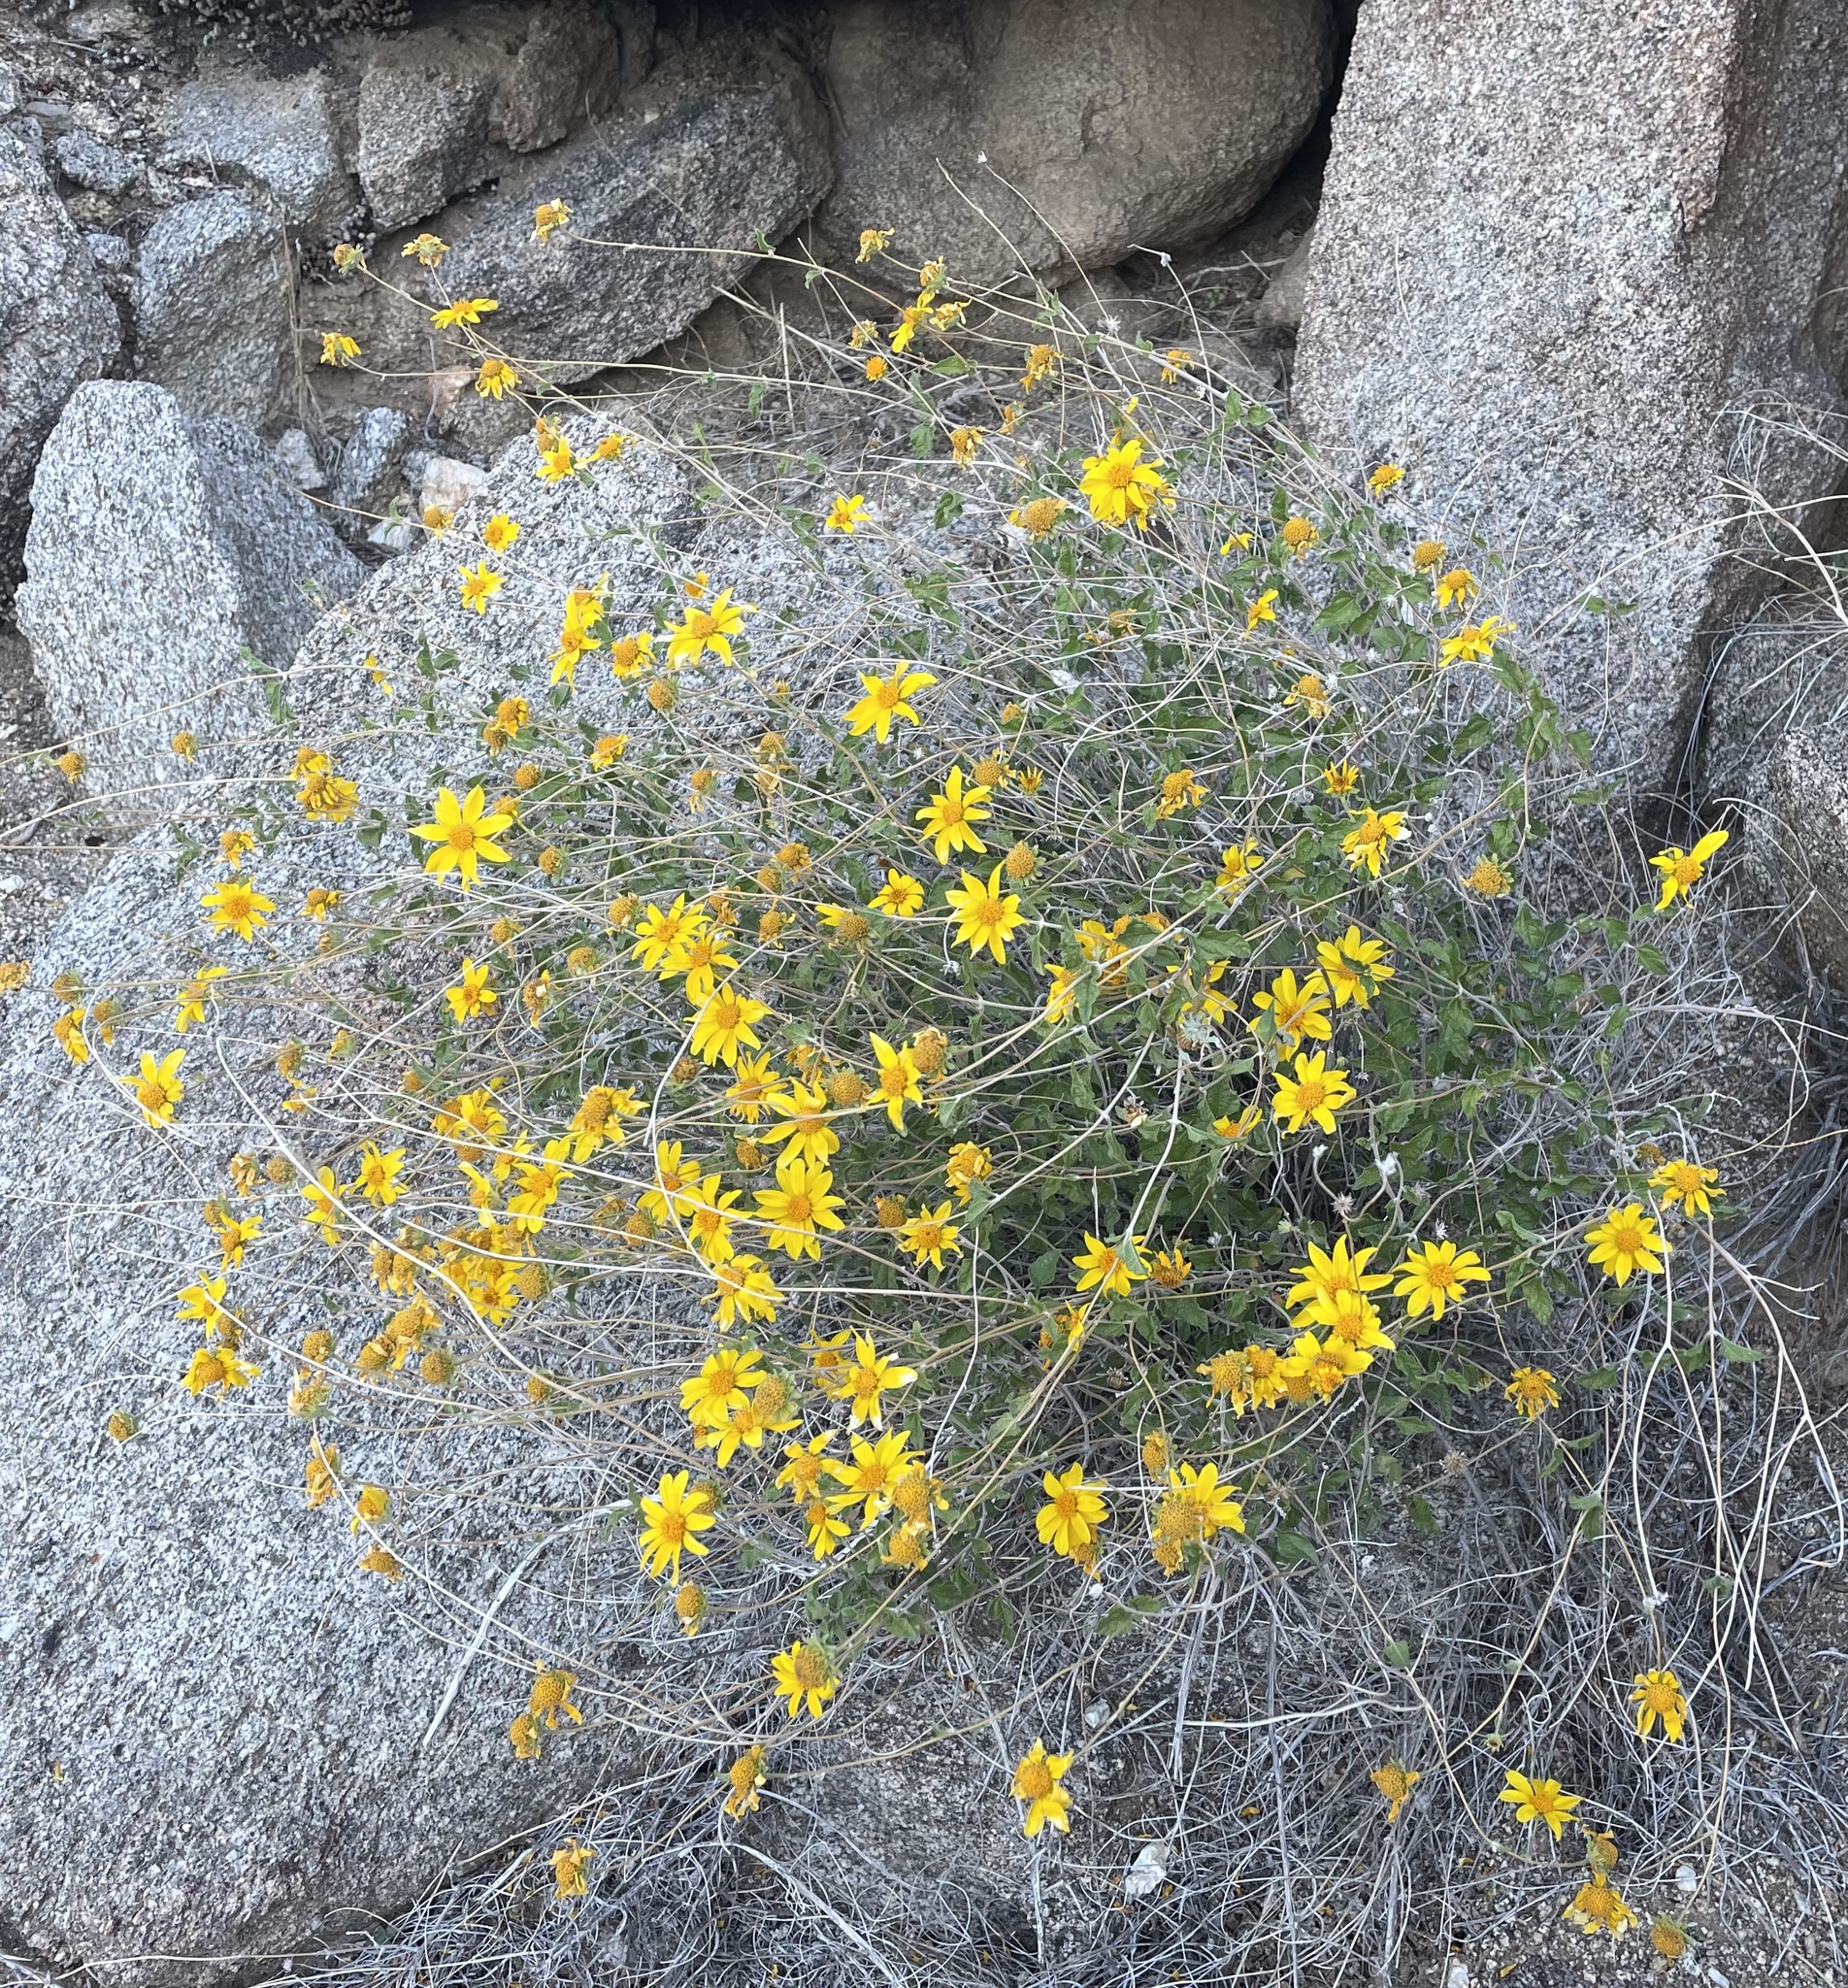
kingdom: Plantae
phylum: Tracheophyta
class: Magnoliopsida
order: Asterales
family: Asteraceae
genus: Bahiopsis
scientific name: Bahiopsis parishii
